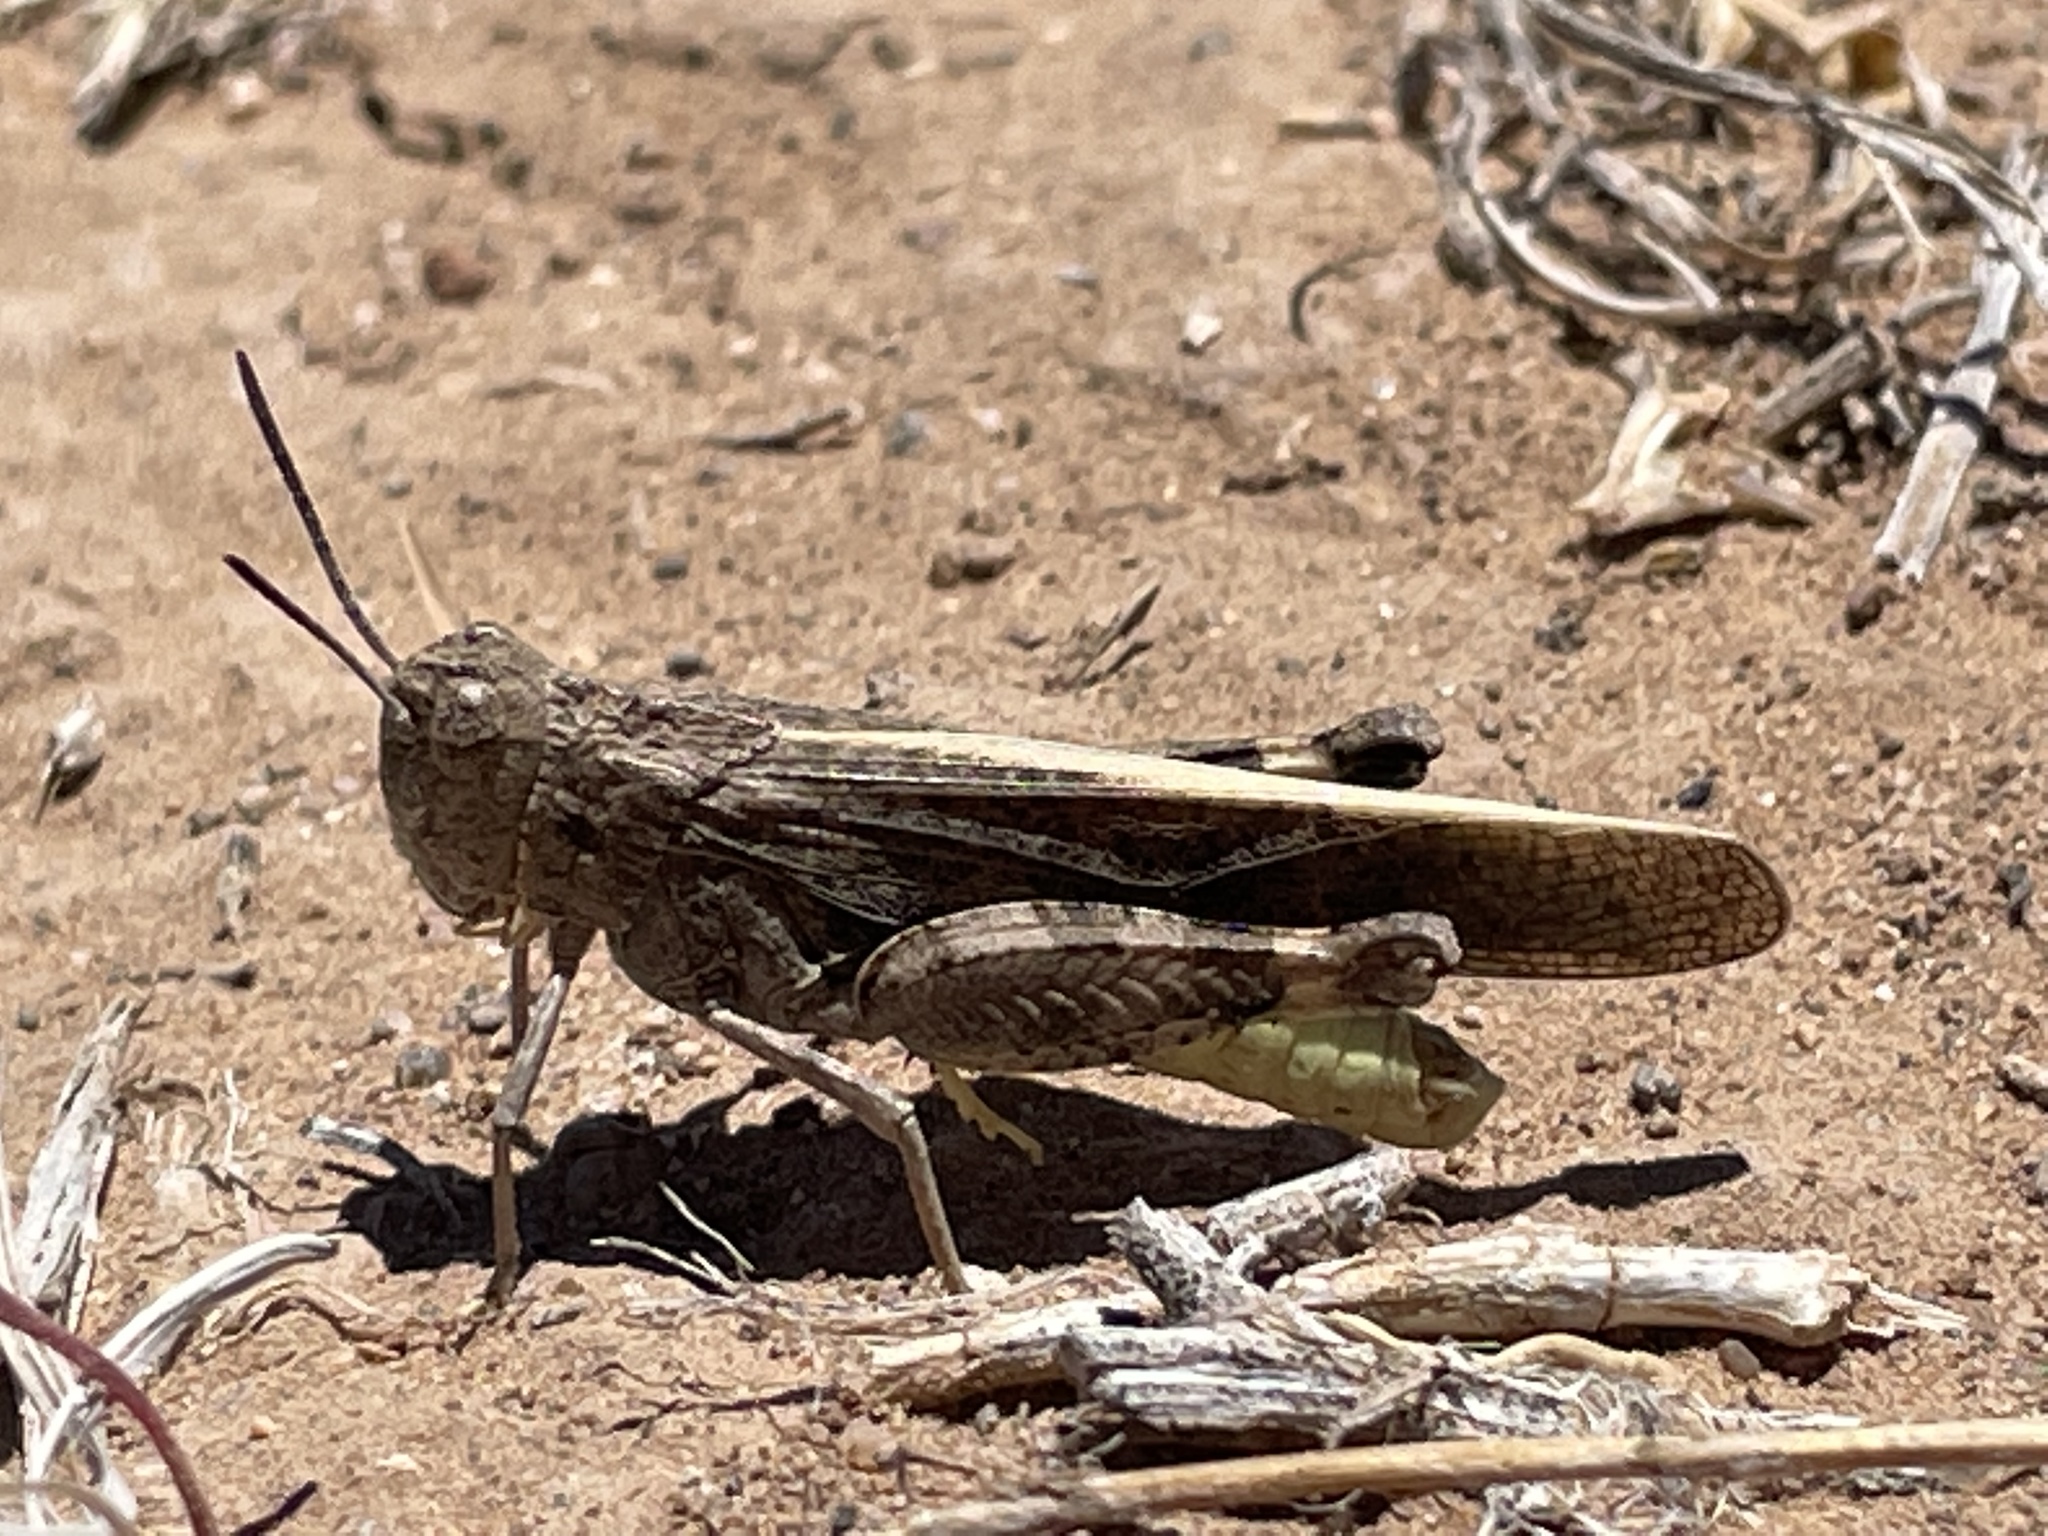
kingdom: Animalia
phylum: Arthropoda
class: Insecta
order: Orthoptera
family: Acrididae
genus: Arphia
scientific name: Arphia conspersa
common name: Speckle-winged rangeland grasshopper
